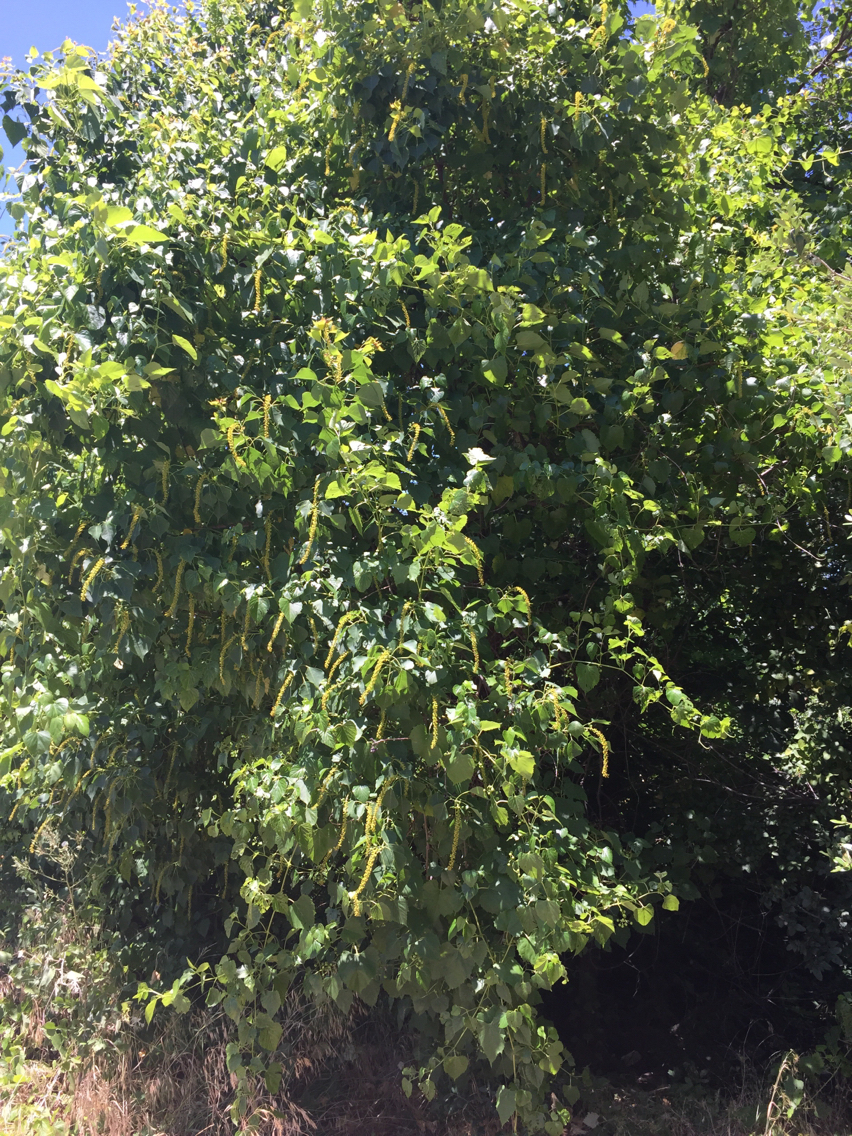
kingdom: Plantae
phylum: Tracheophyta
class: Magnoliopsida
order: Malpighiales
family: Euphorbiaceae
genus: Triadica
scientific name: Triadica sebifera
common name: Chinese tallow
